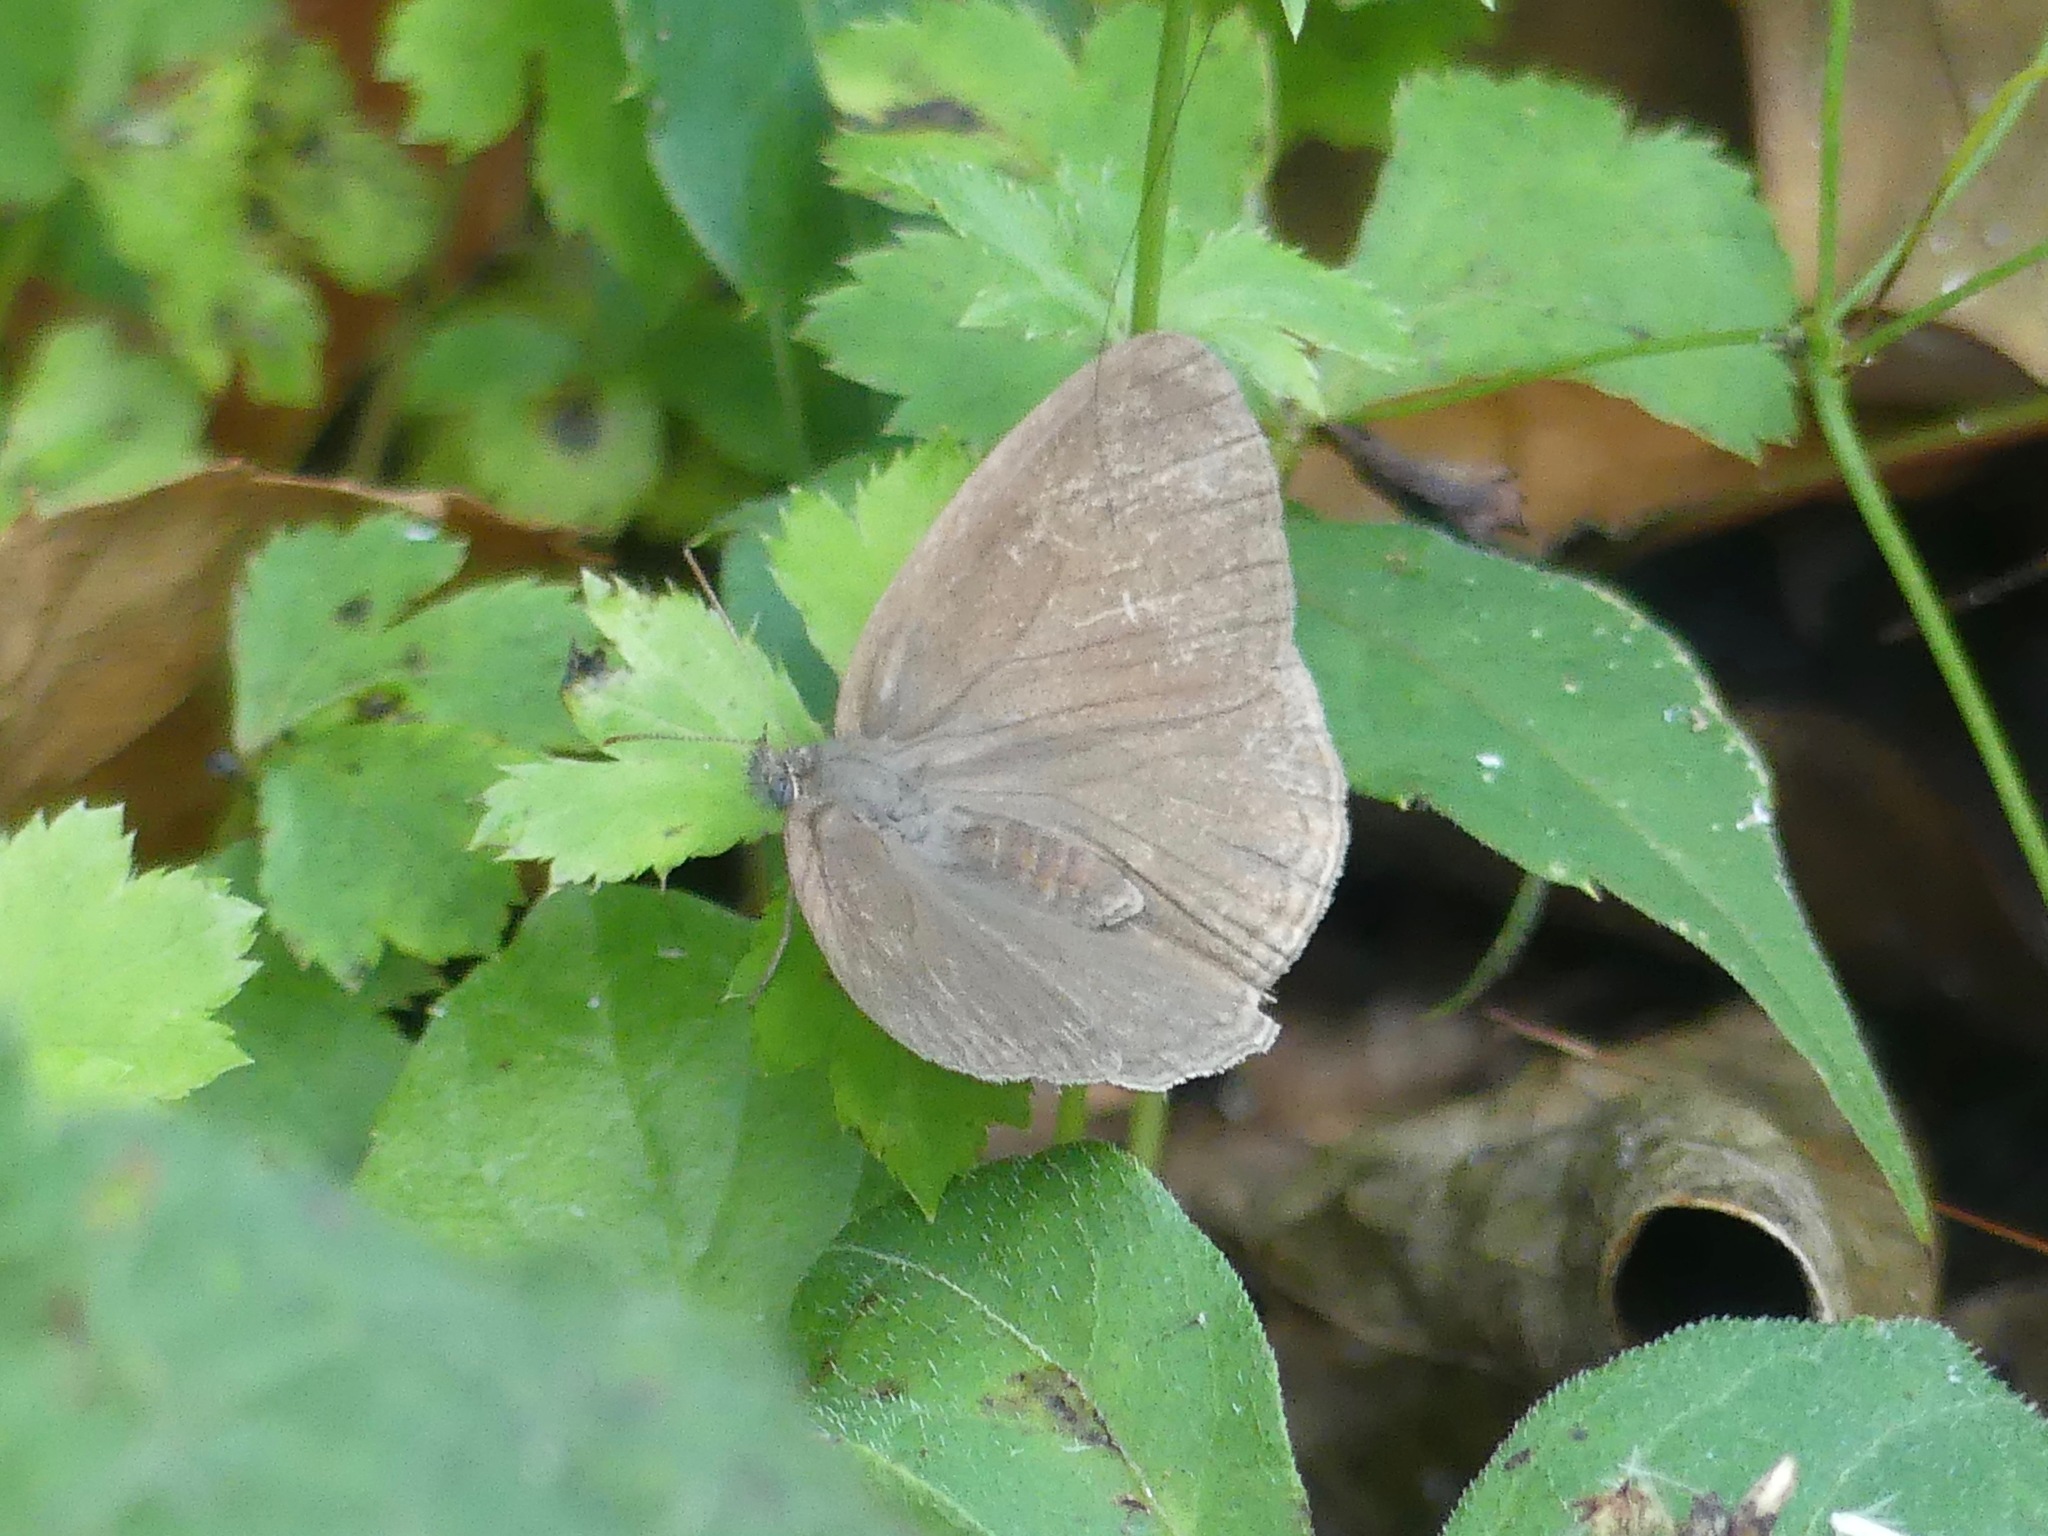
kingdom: Animalia
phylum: Arthropoda
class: Insecta
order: Lepidoptera
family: Nymphalidae
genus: Hermeuptychia
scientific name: Hermeuptychia hermes
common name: Hermes satyr
